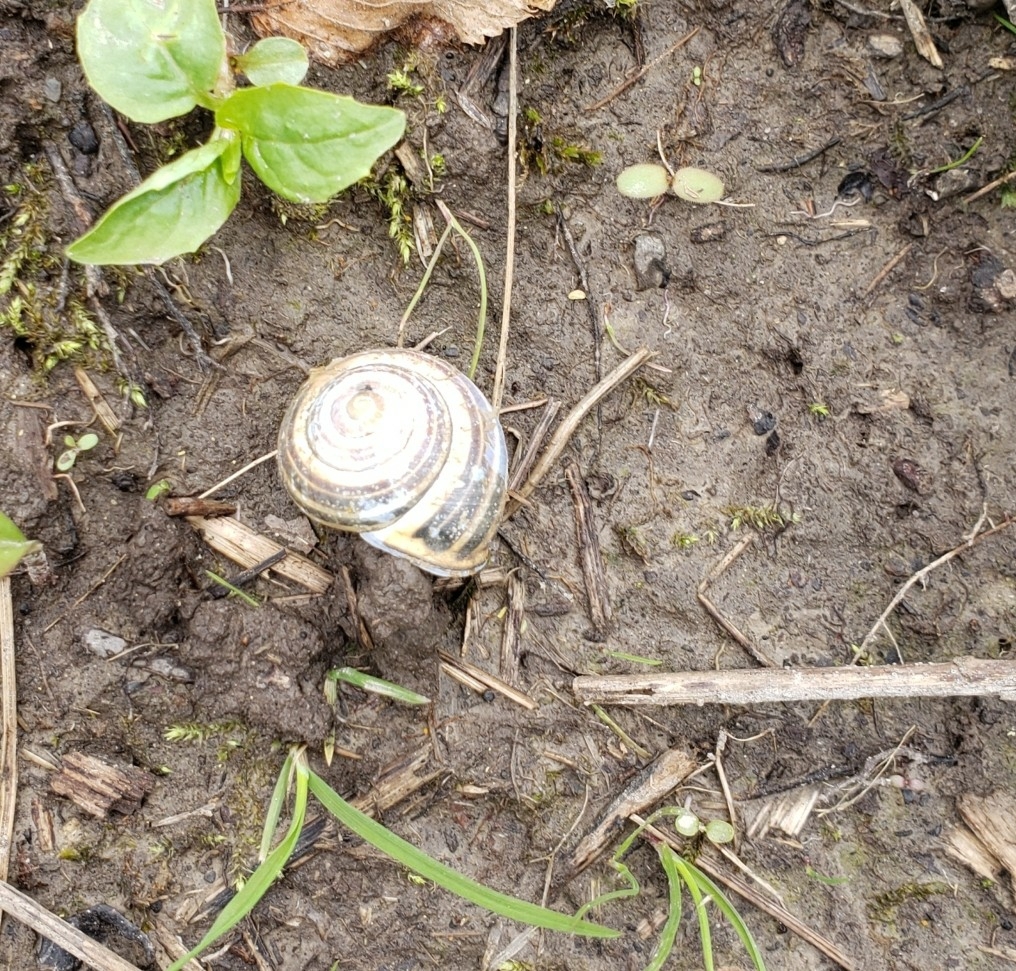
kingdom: Animalia
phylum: Mollusca
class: Gastropoda
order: Stylommatophora
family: Helicidae
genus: Cepaea
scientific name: Cepaea nemoralis
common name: Grovesnail
